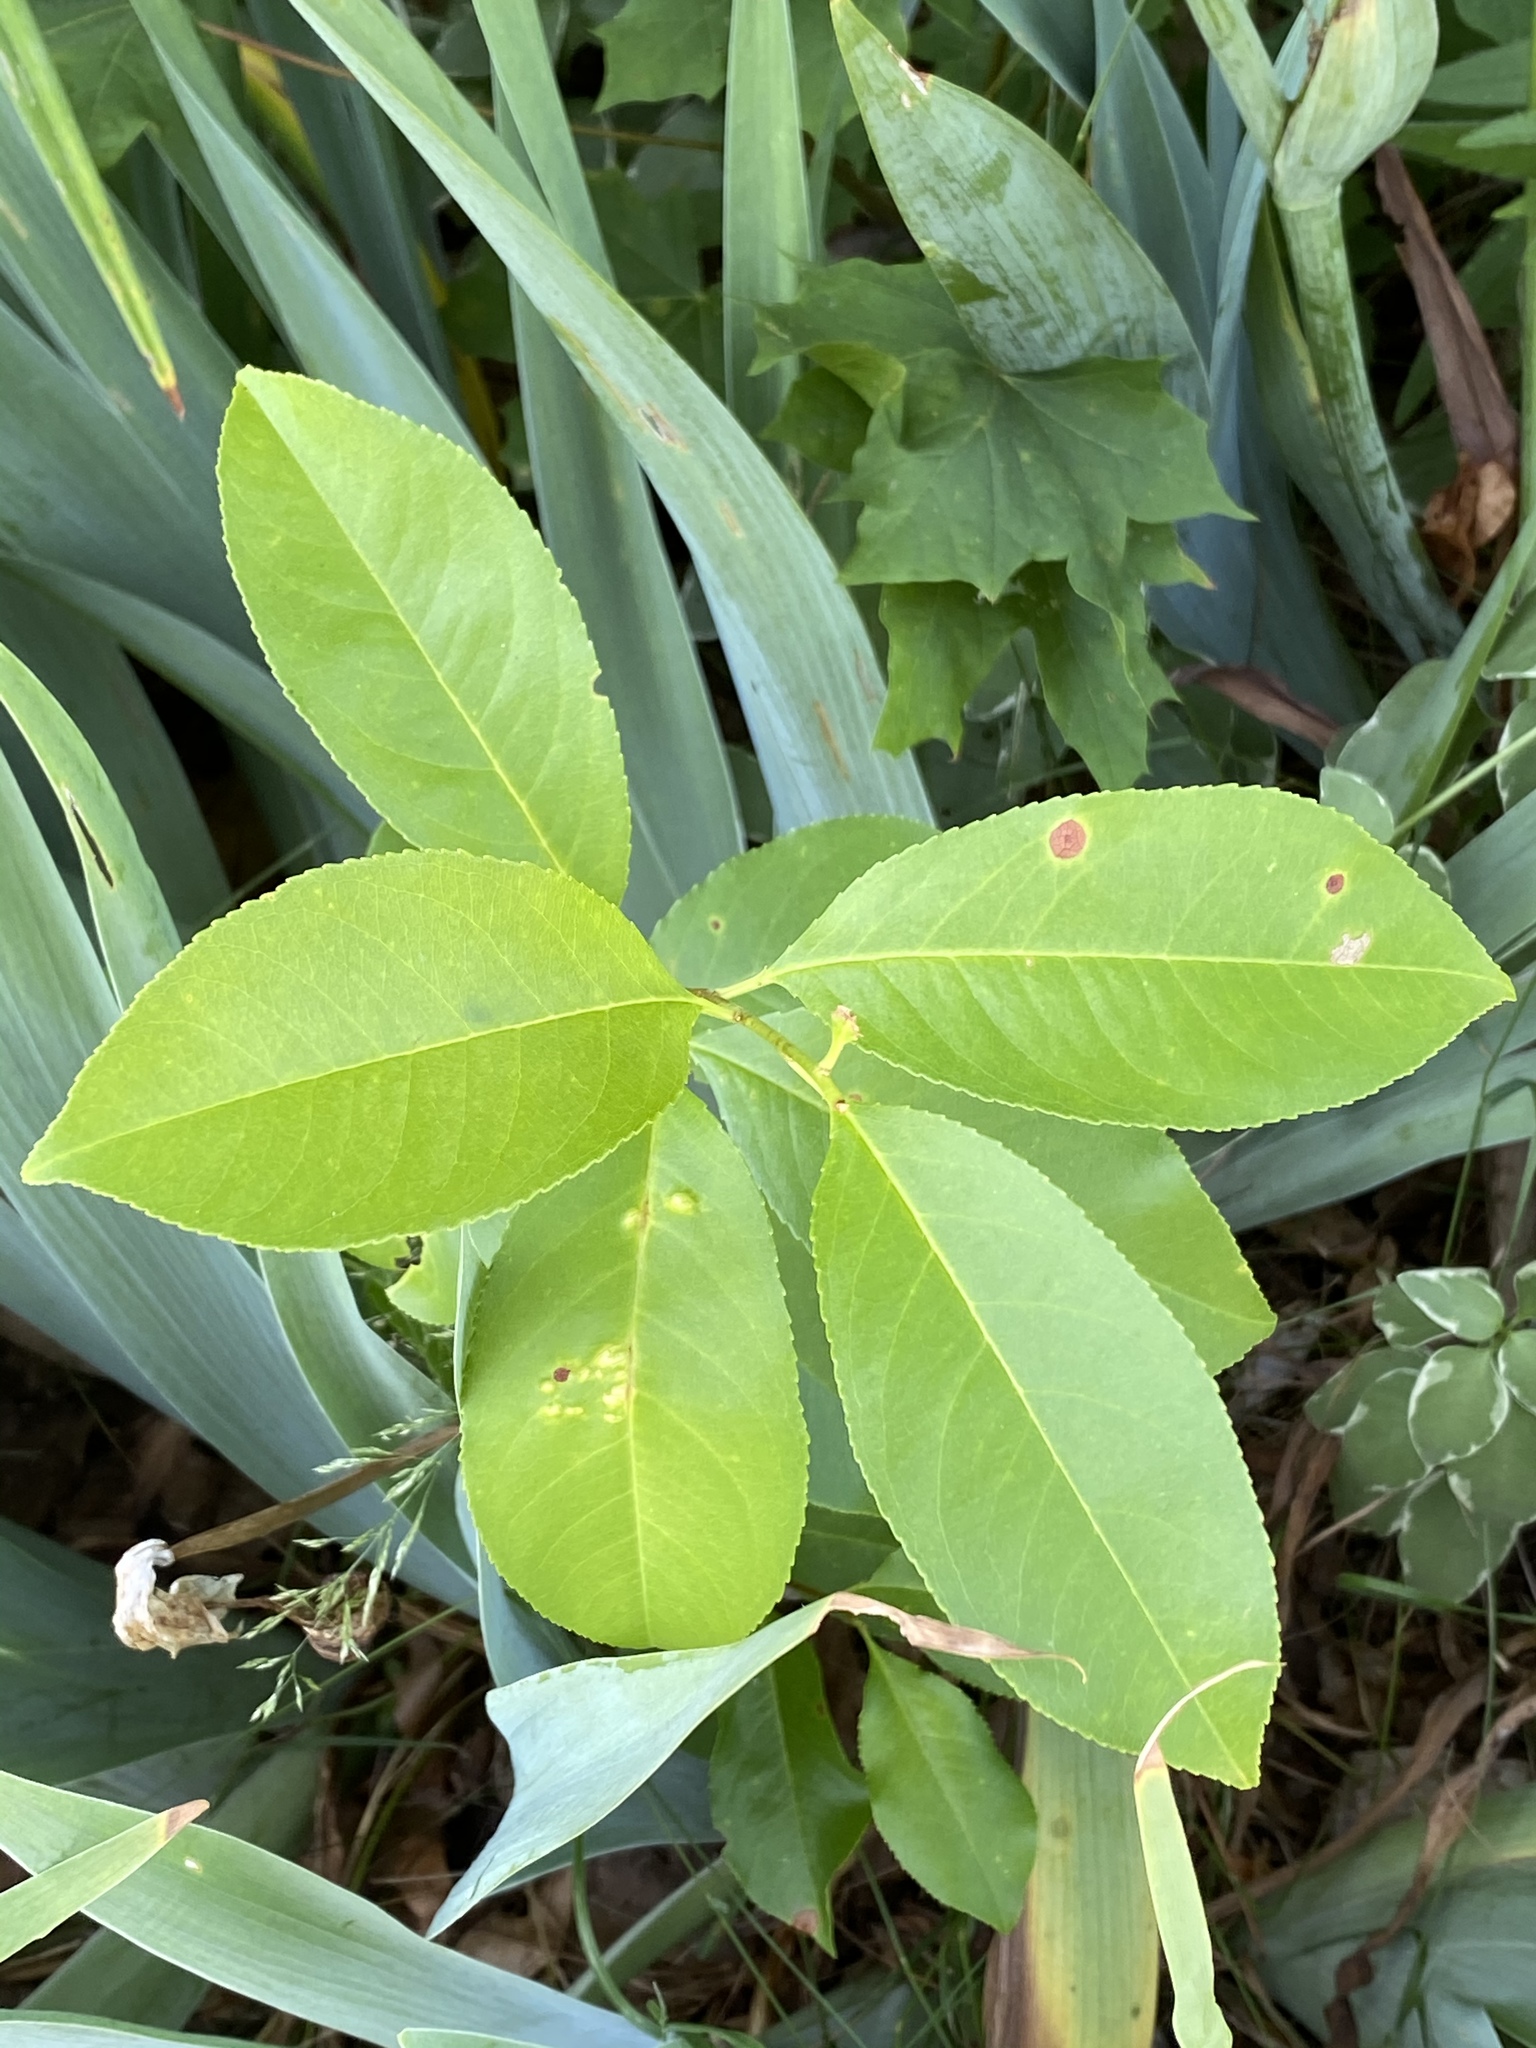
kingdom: Plantae
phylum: Tracheophyta
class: Magnoliopsida
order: Rosales
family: Rosaceae
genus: Prunus
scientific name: Prunus serotina
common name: Black cherry
